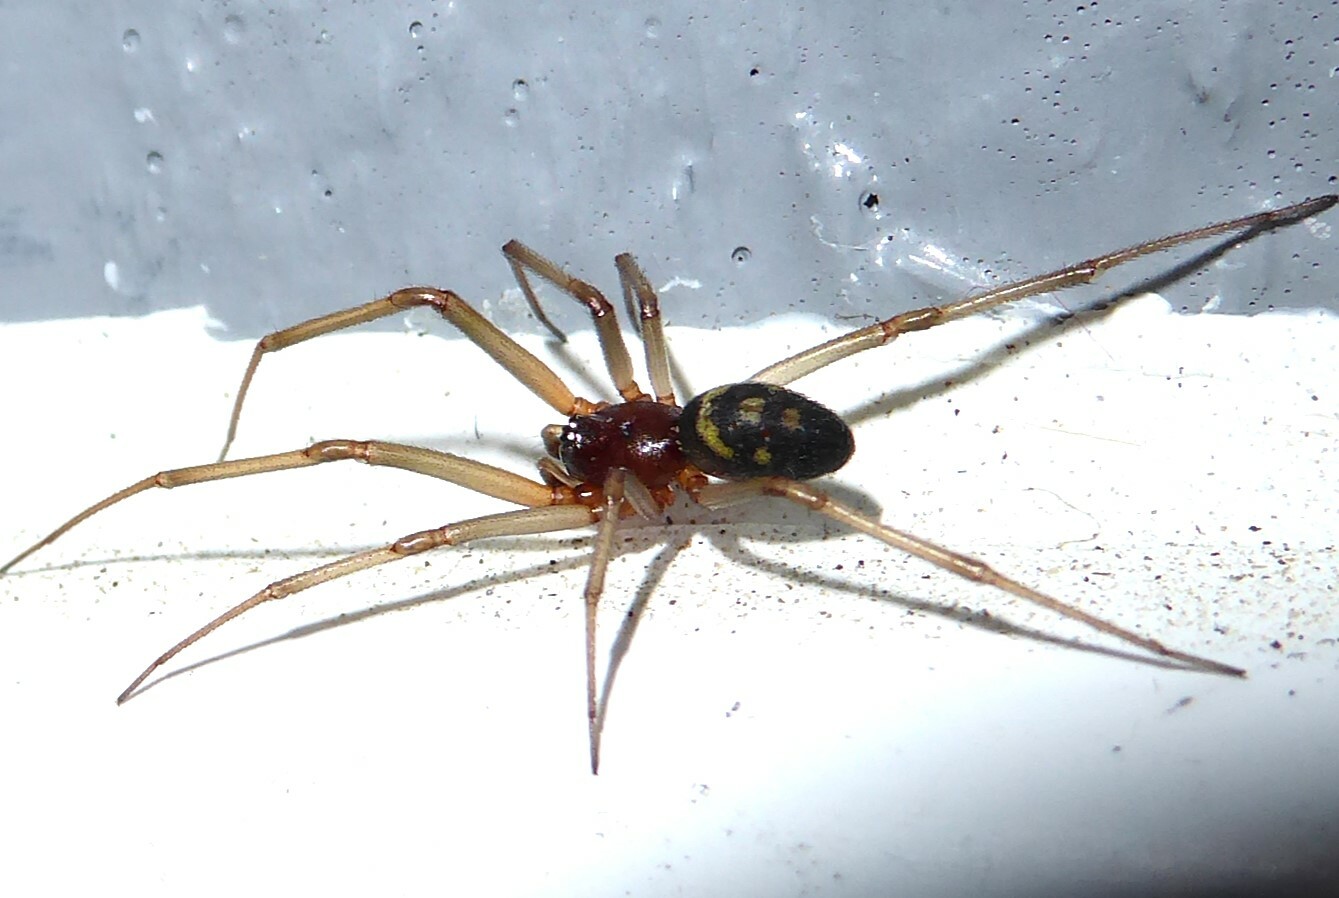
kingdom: Animalia
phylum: Arthropoda
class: Arachnida
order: Araneae
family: Theridiidae
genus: Steatoda
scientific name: Steatoda grossa
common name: False black widow
